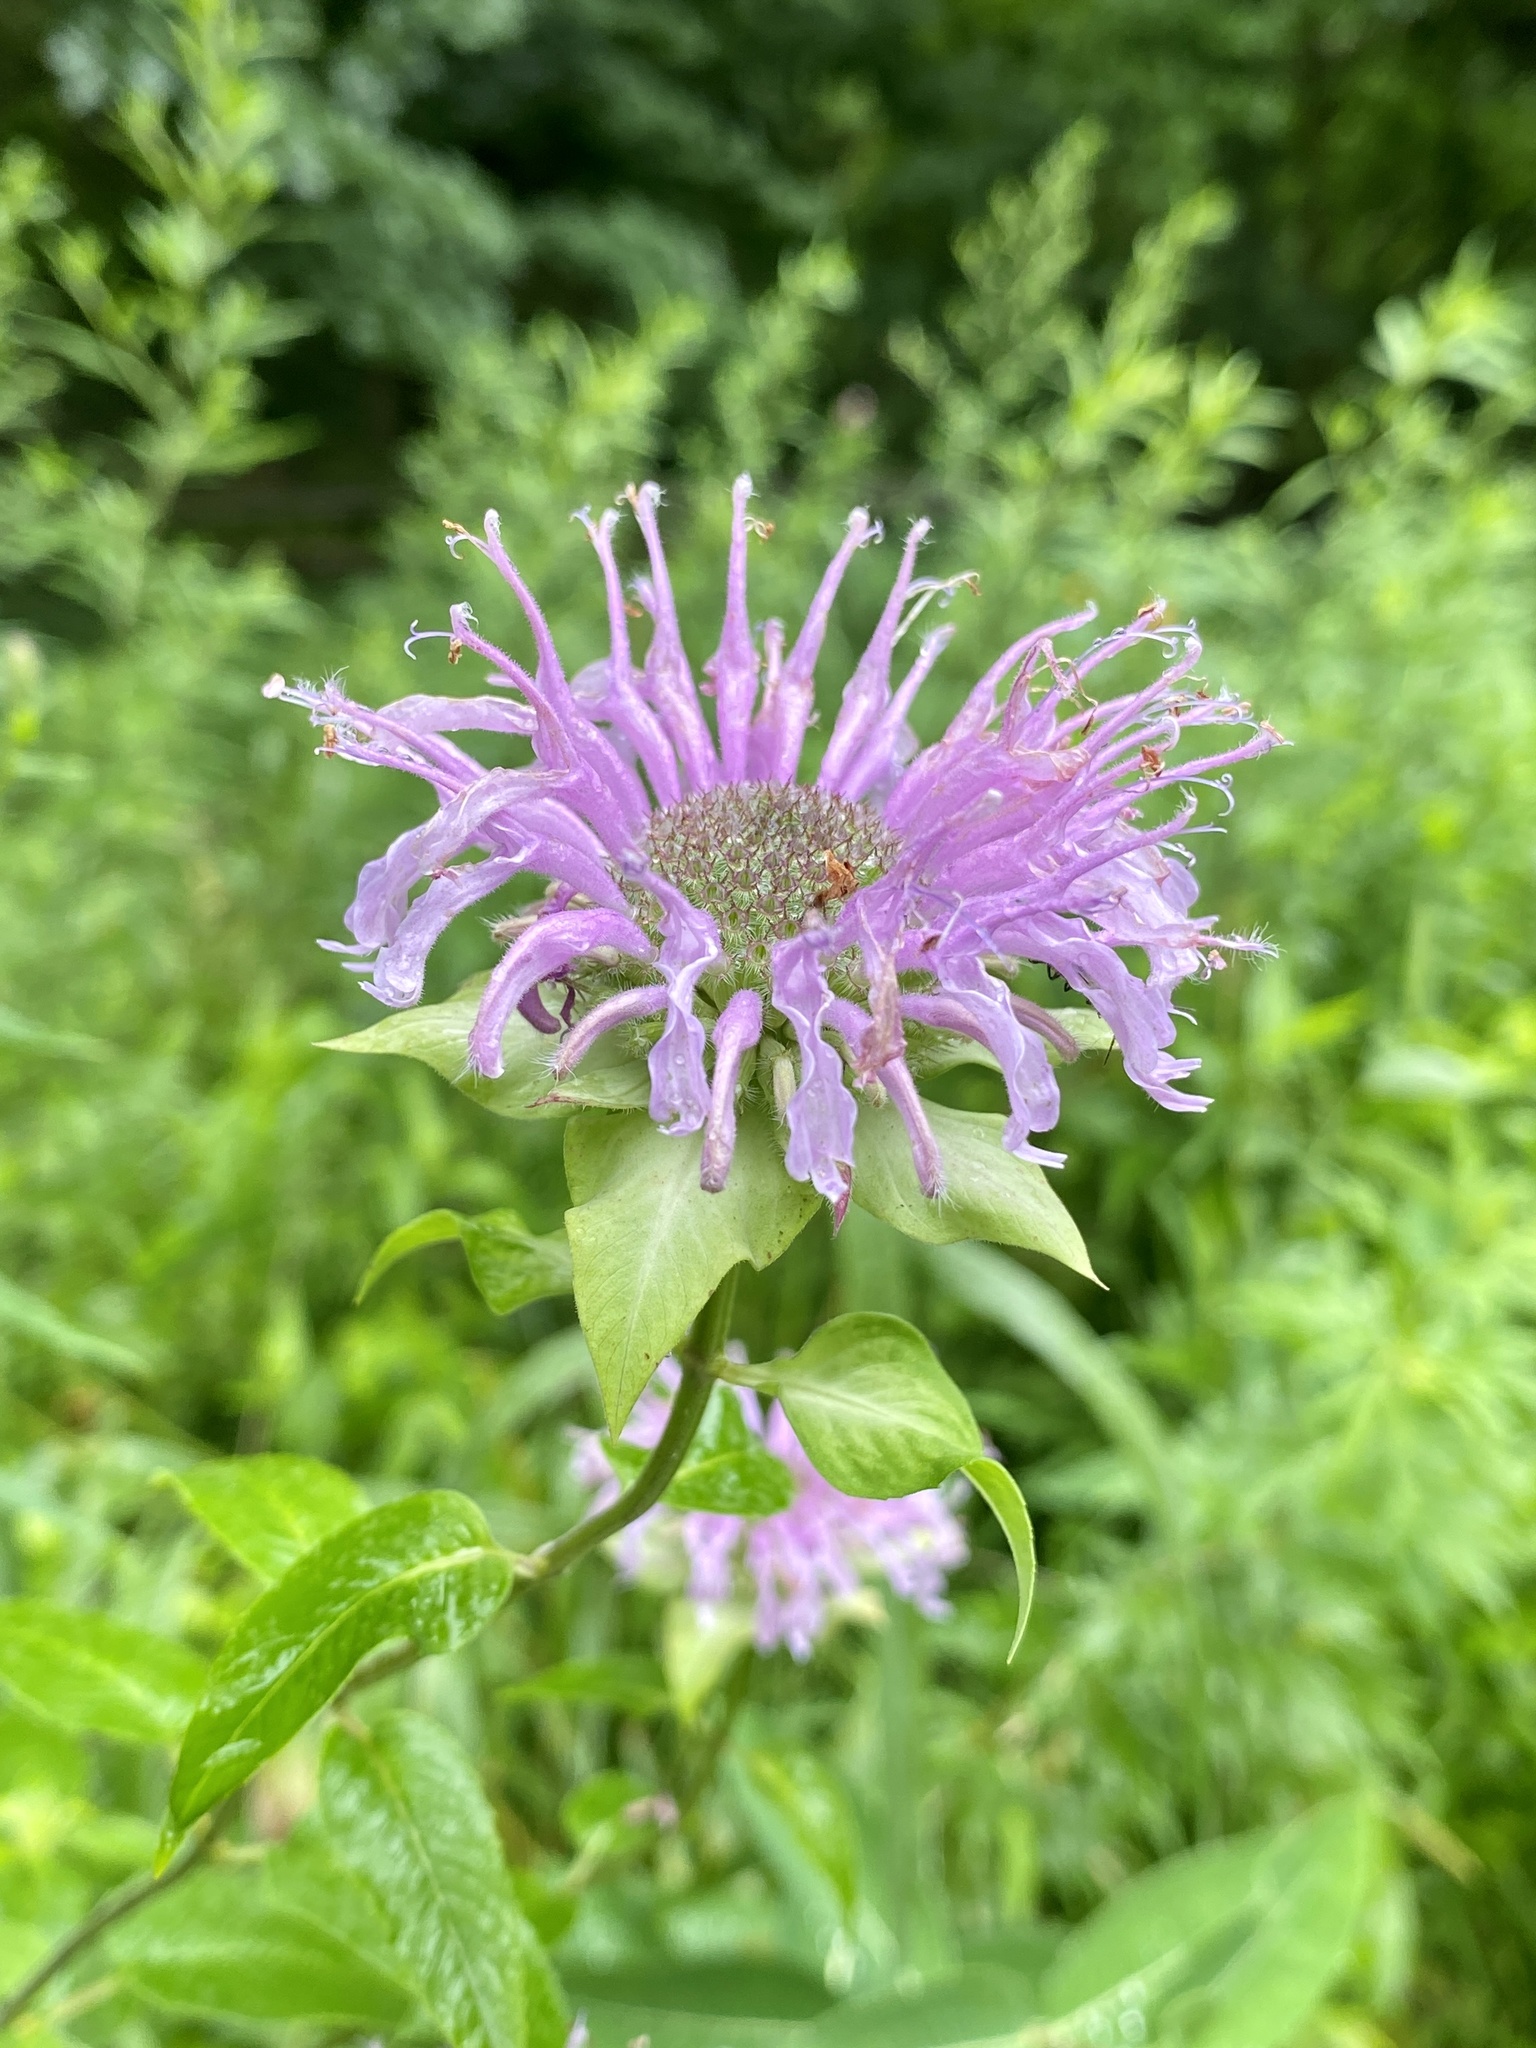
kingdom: Plantae
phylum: Tracheophyta
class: Magnoliopsida
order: Lamiales
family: Lamiaceae
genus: Monarda
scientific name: Monarda fistulosa
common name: Purple beebalm
